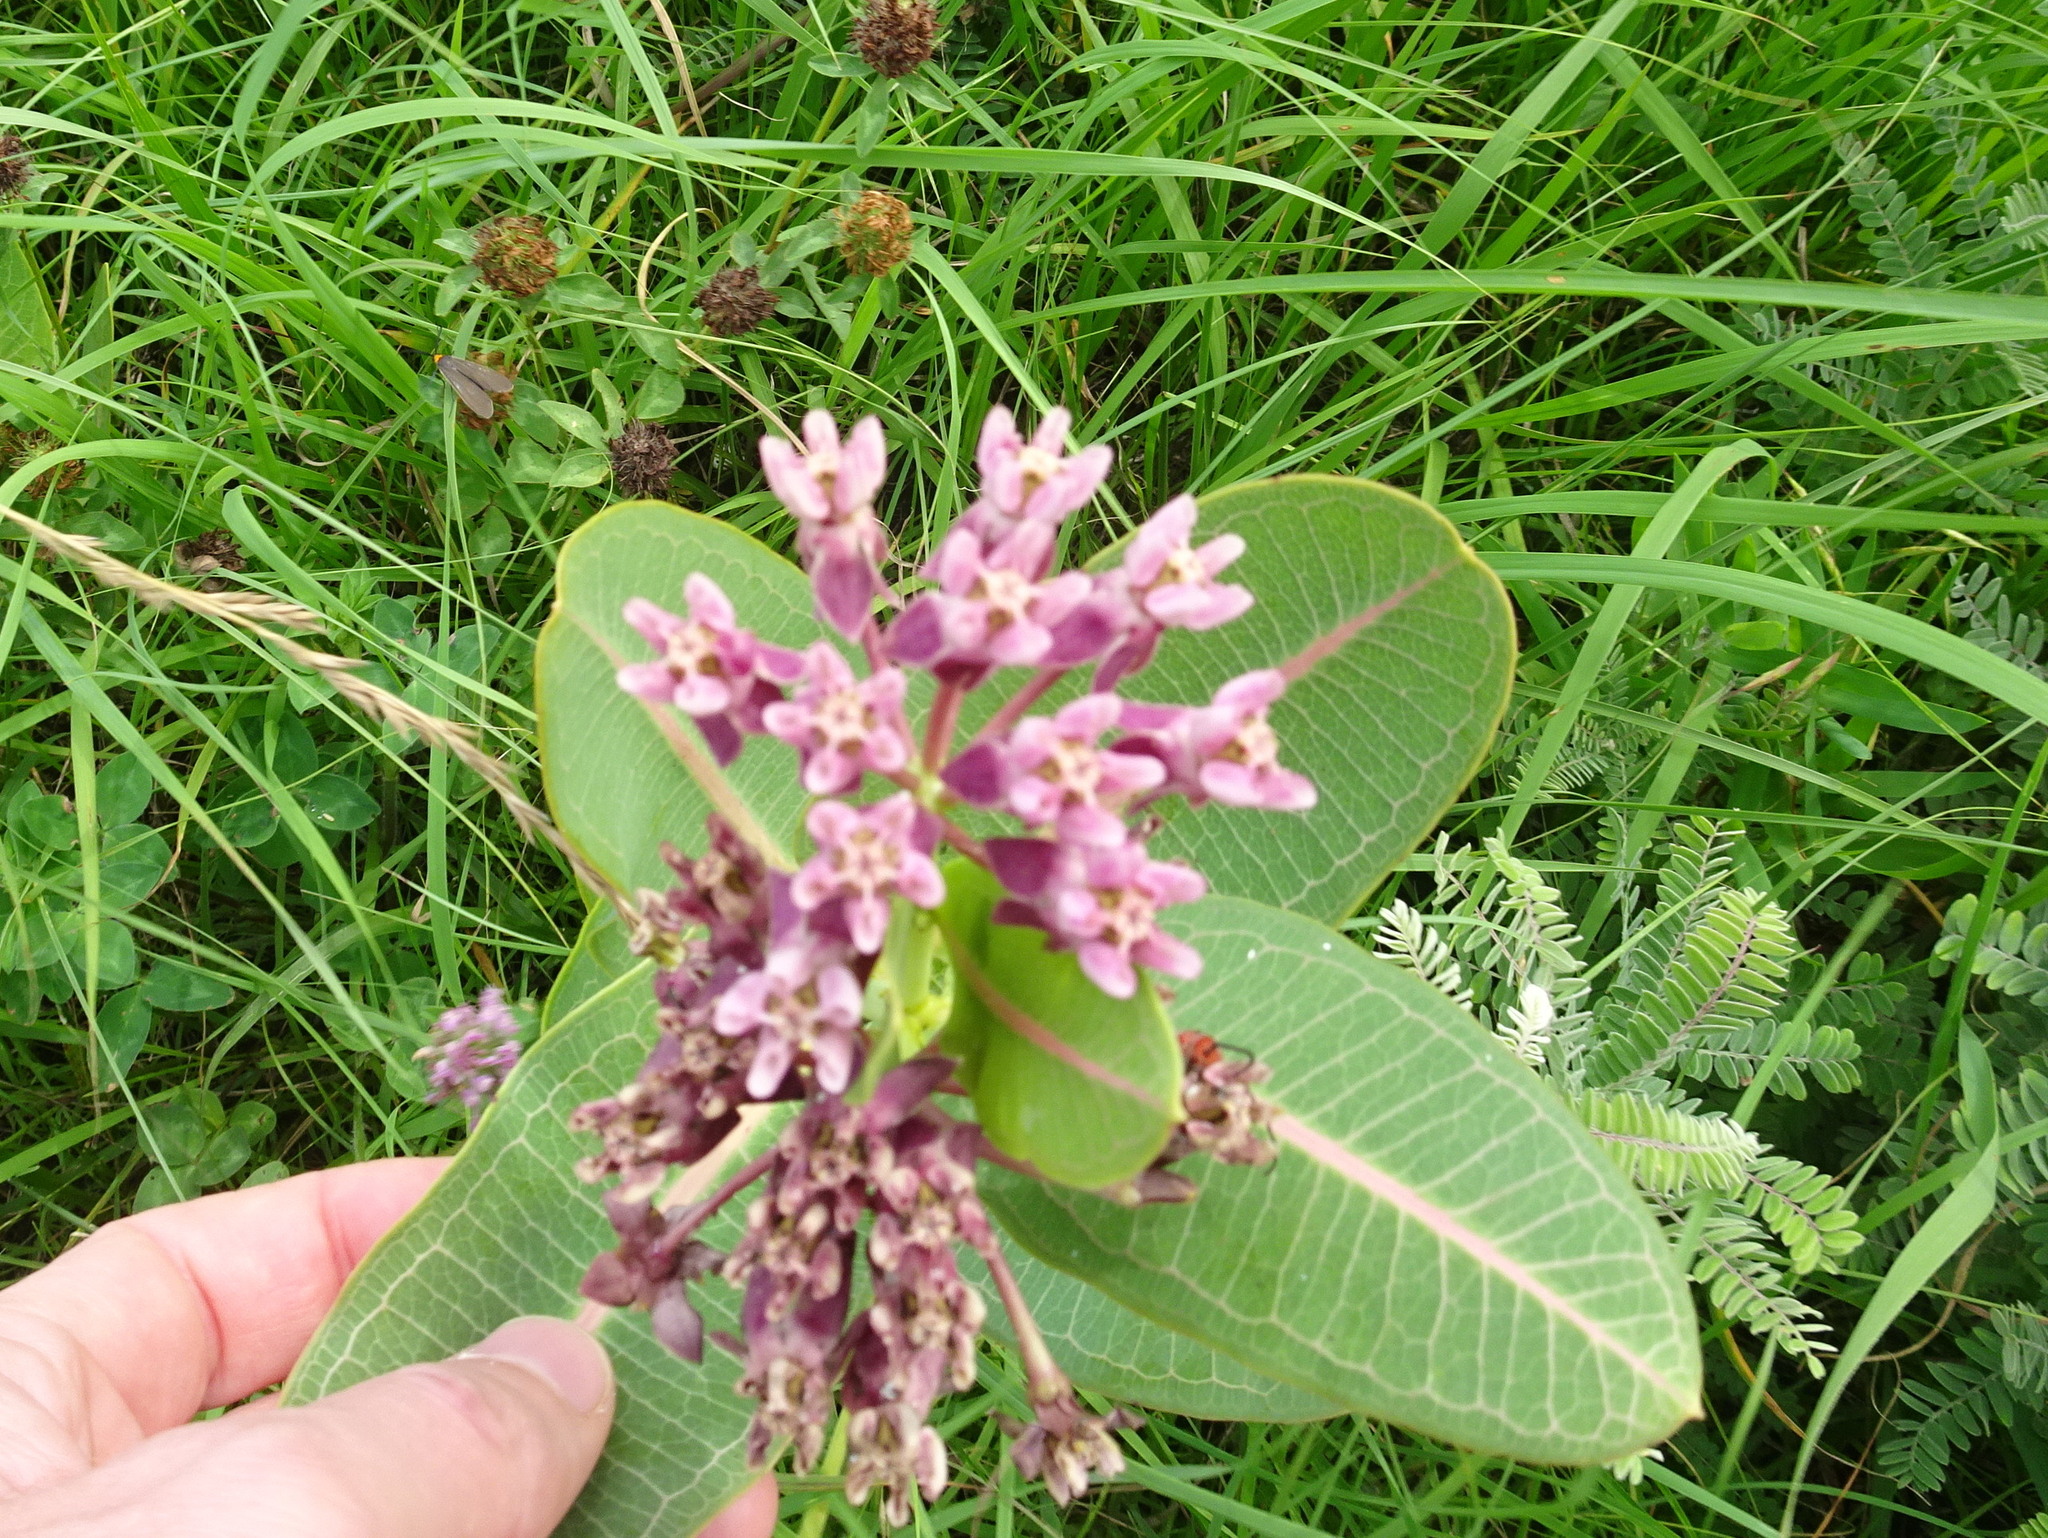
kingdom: Plantae
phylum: Tracheophyta
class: Magnoliopsida
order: Gentianales
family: Apocynaceae
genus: Asclepias
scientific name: Asclepias sullivantii
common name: Prairie milkweed
